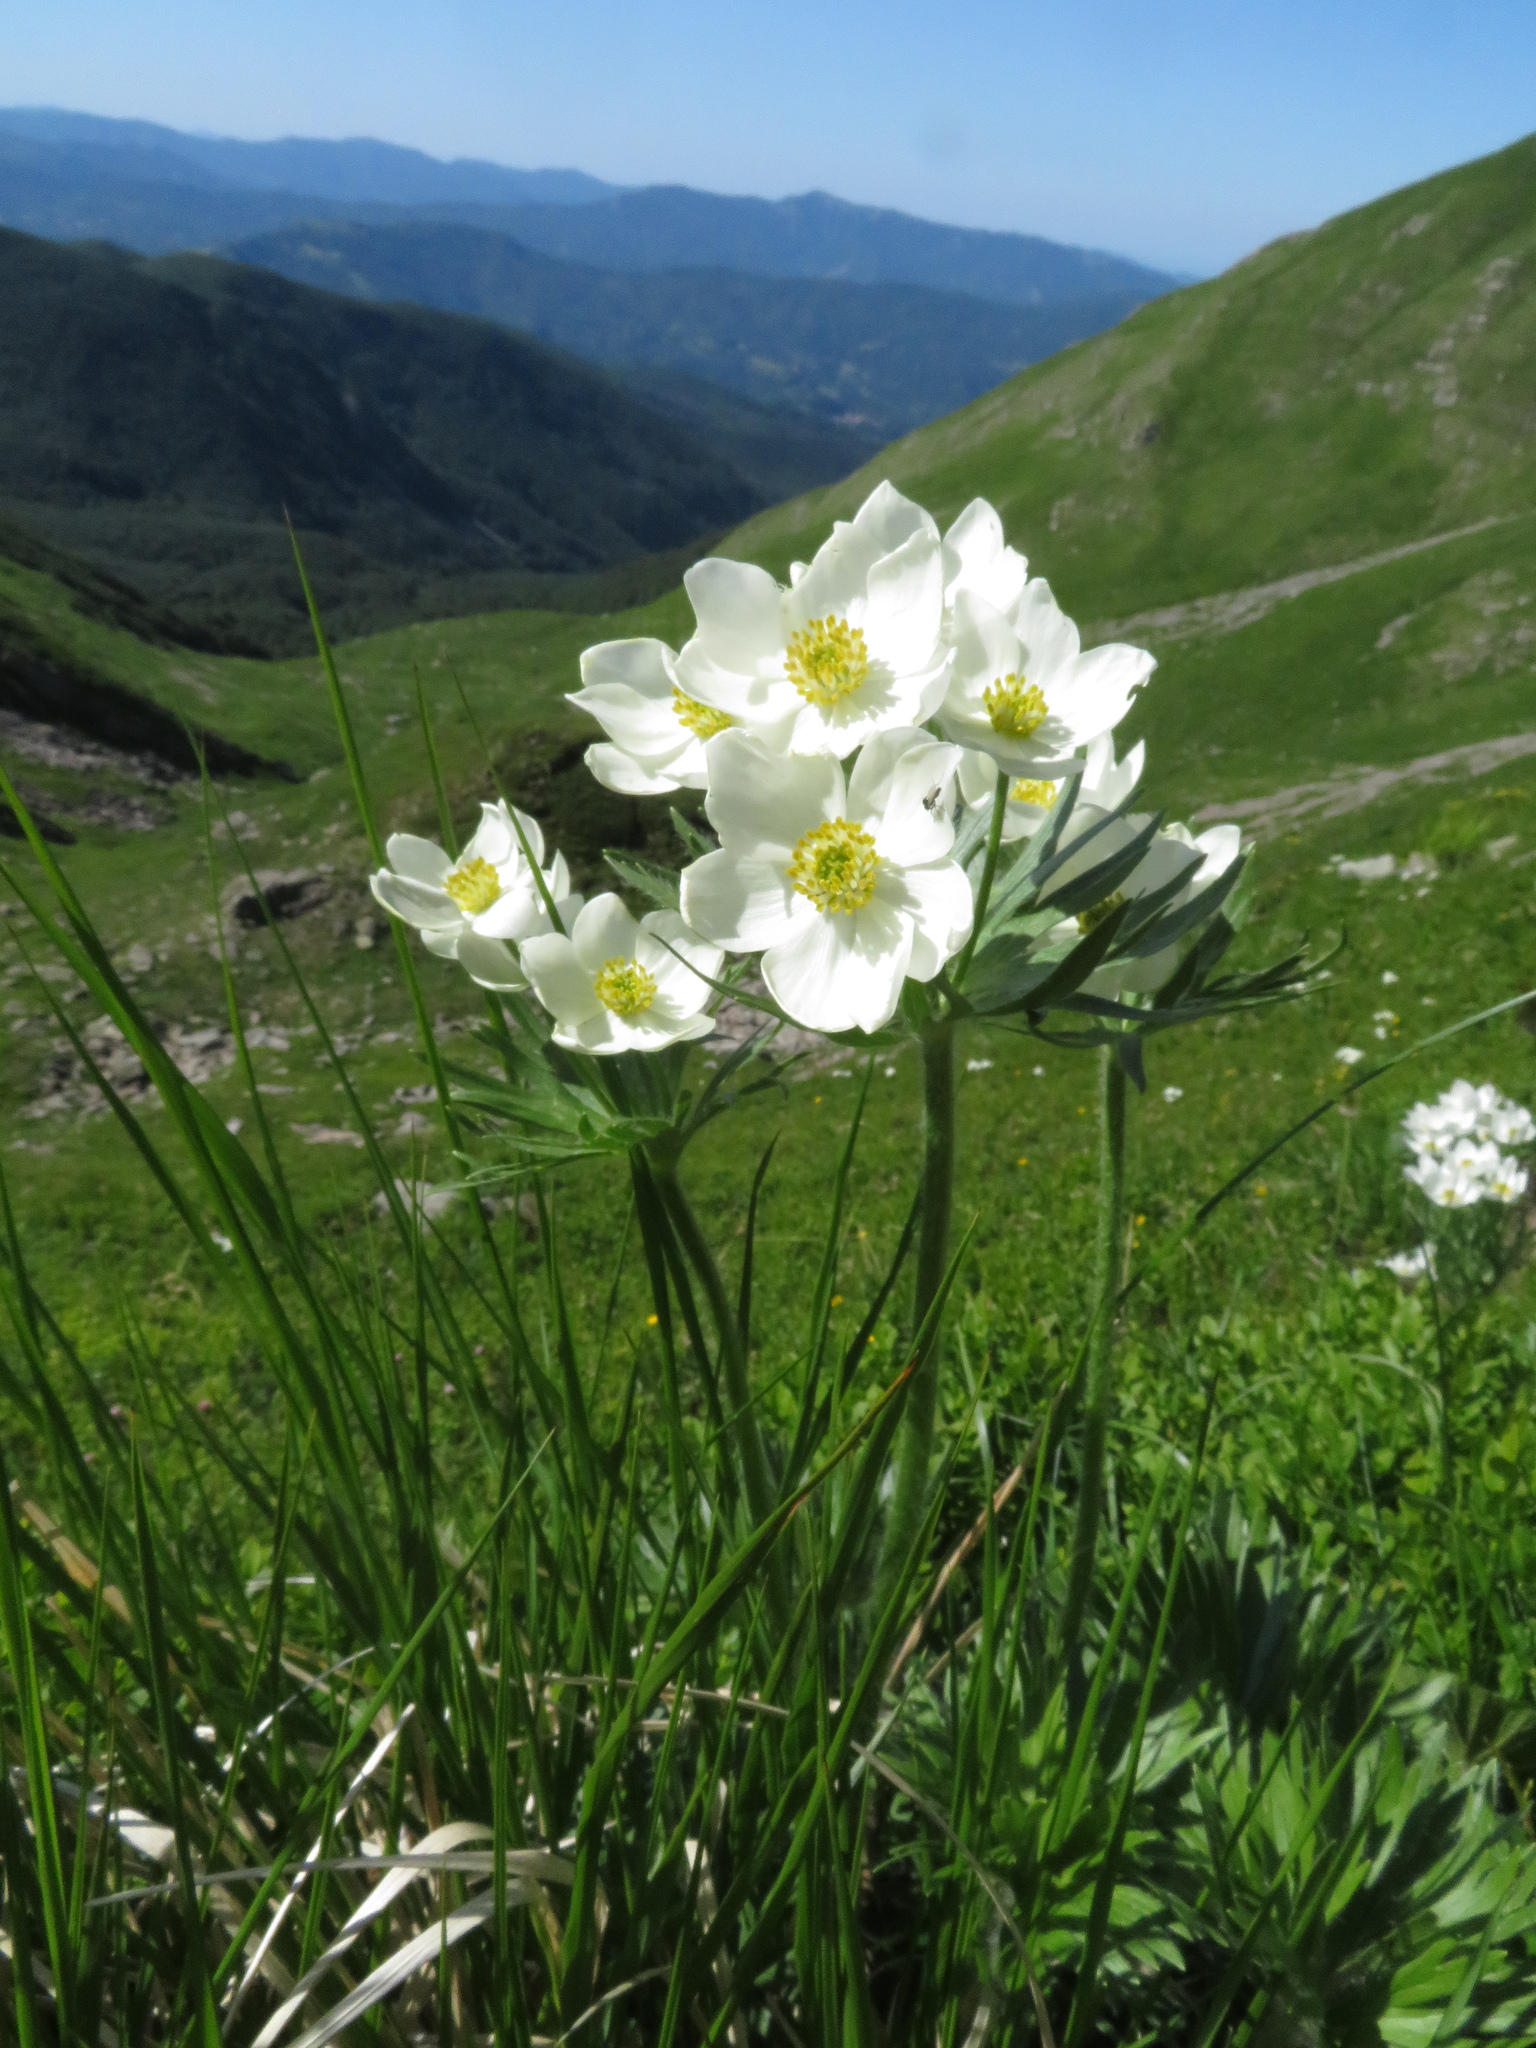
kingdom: Plantae
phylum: Tracheophyta
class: Magnoliopsida
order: Ranunculales
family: Ranunculaceae
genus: Anemonastrum
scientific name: Anemonastrum narcissiflorum
